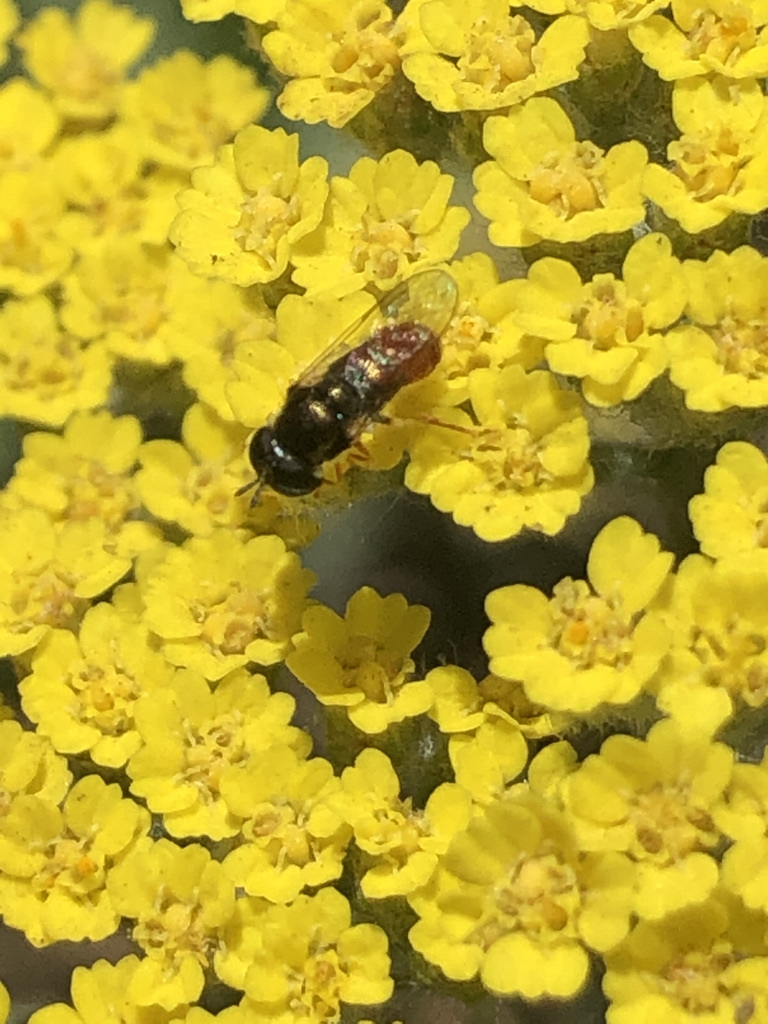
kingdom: Animalia
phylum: Arthropoda
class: Insecta
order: Diptera
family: Syrphidae
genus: Paragus
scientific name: Paragus haemorrhous
